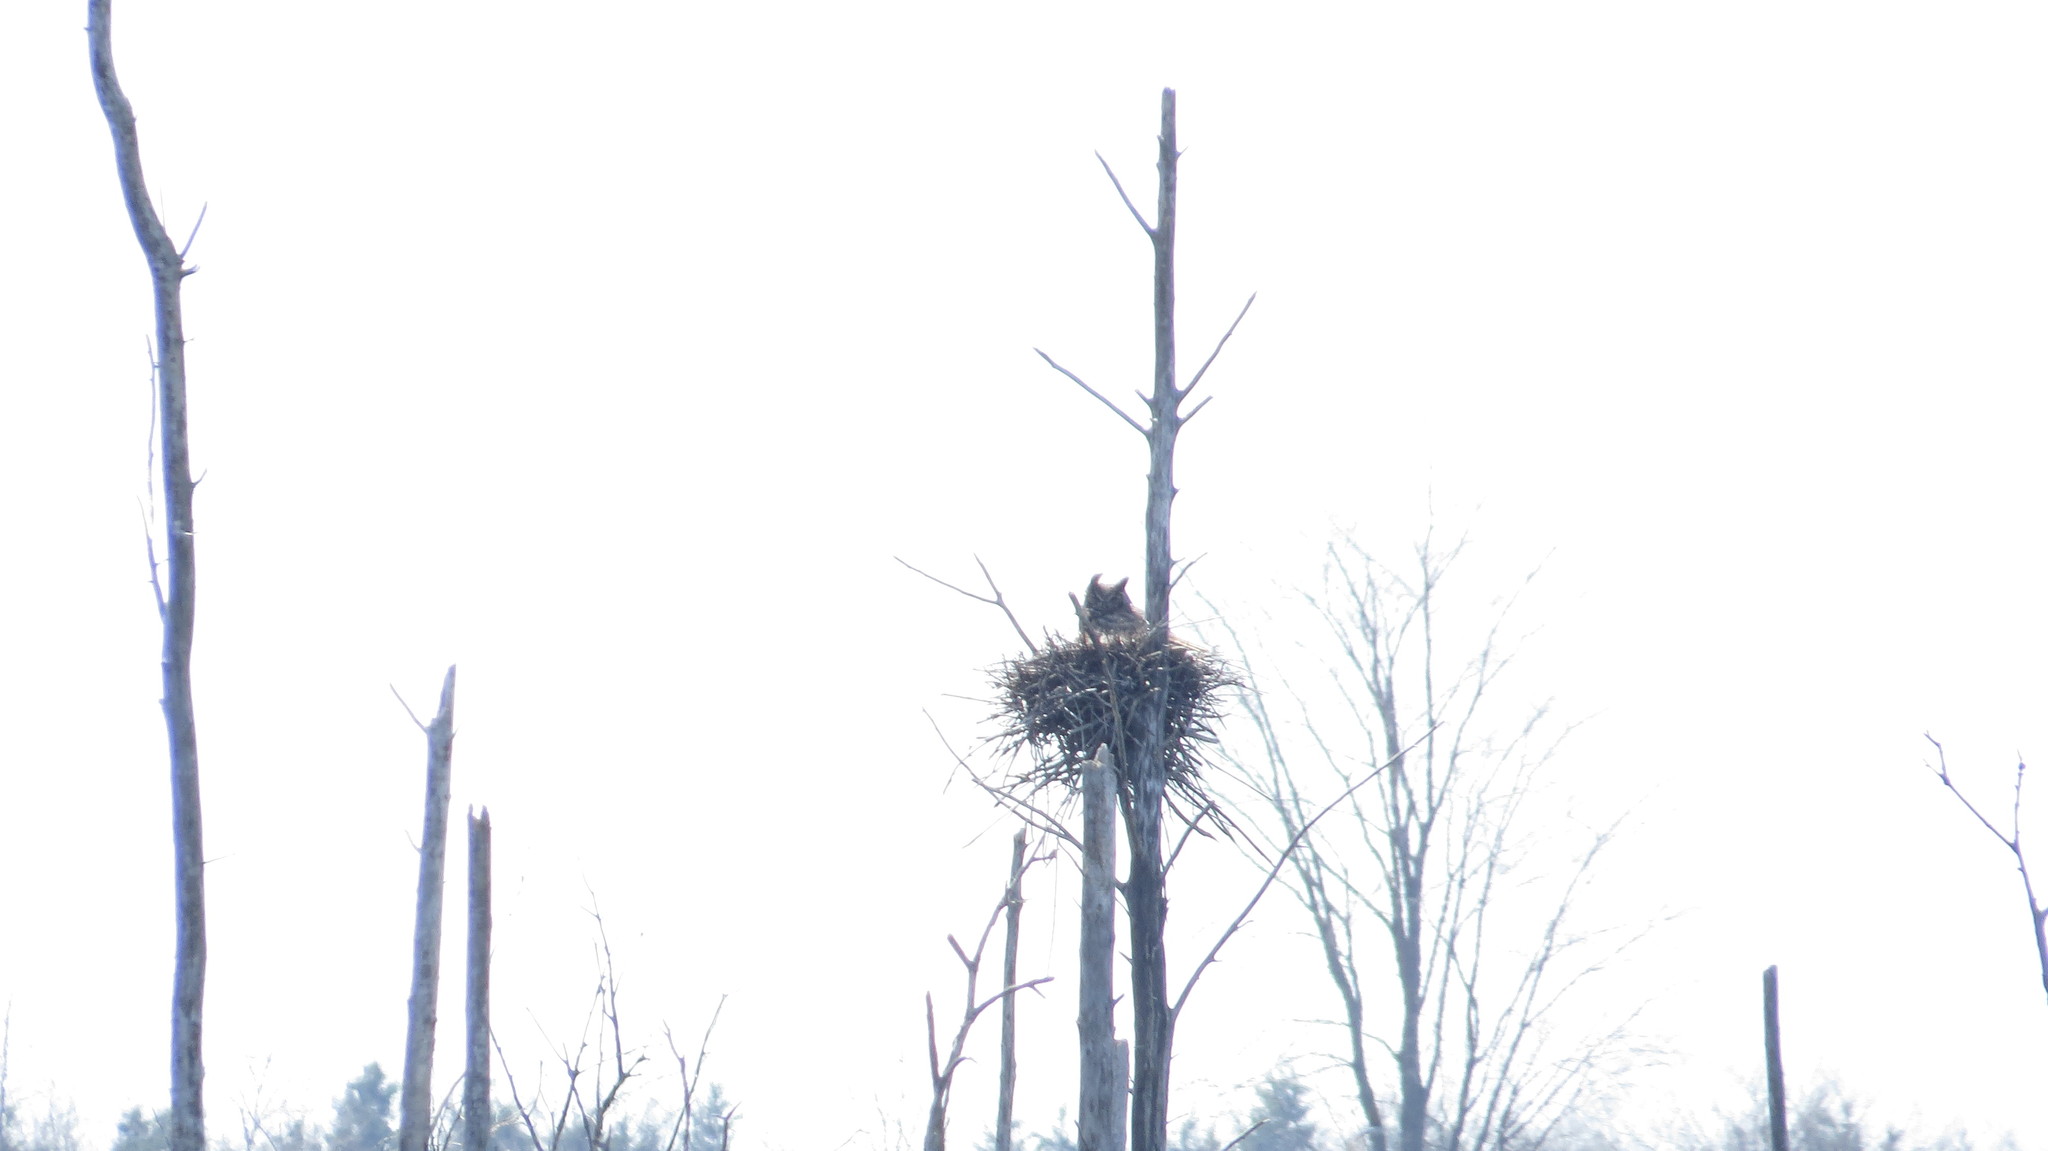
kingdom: Animalia
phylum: Chordata
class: Aves
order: Strigiformes
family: Strigidae
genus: Bubo
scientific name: Bubo virginianus
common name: Great horned owl
